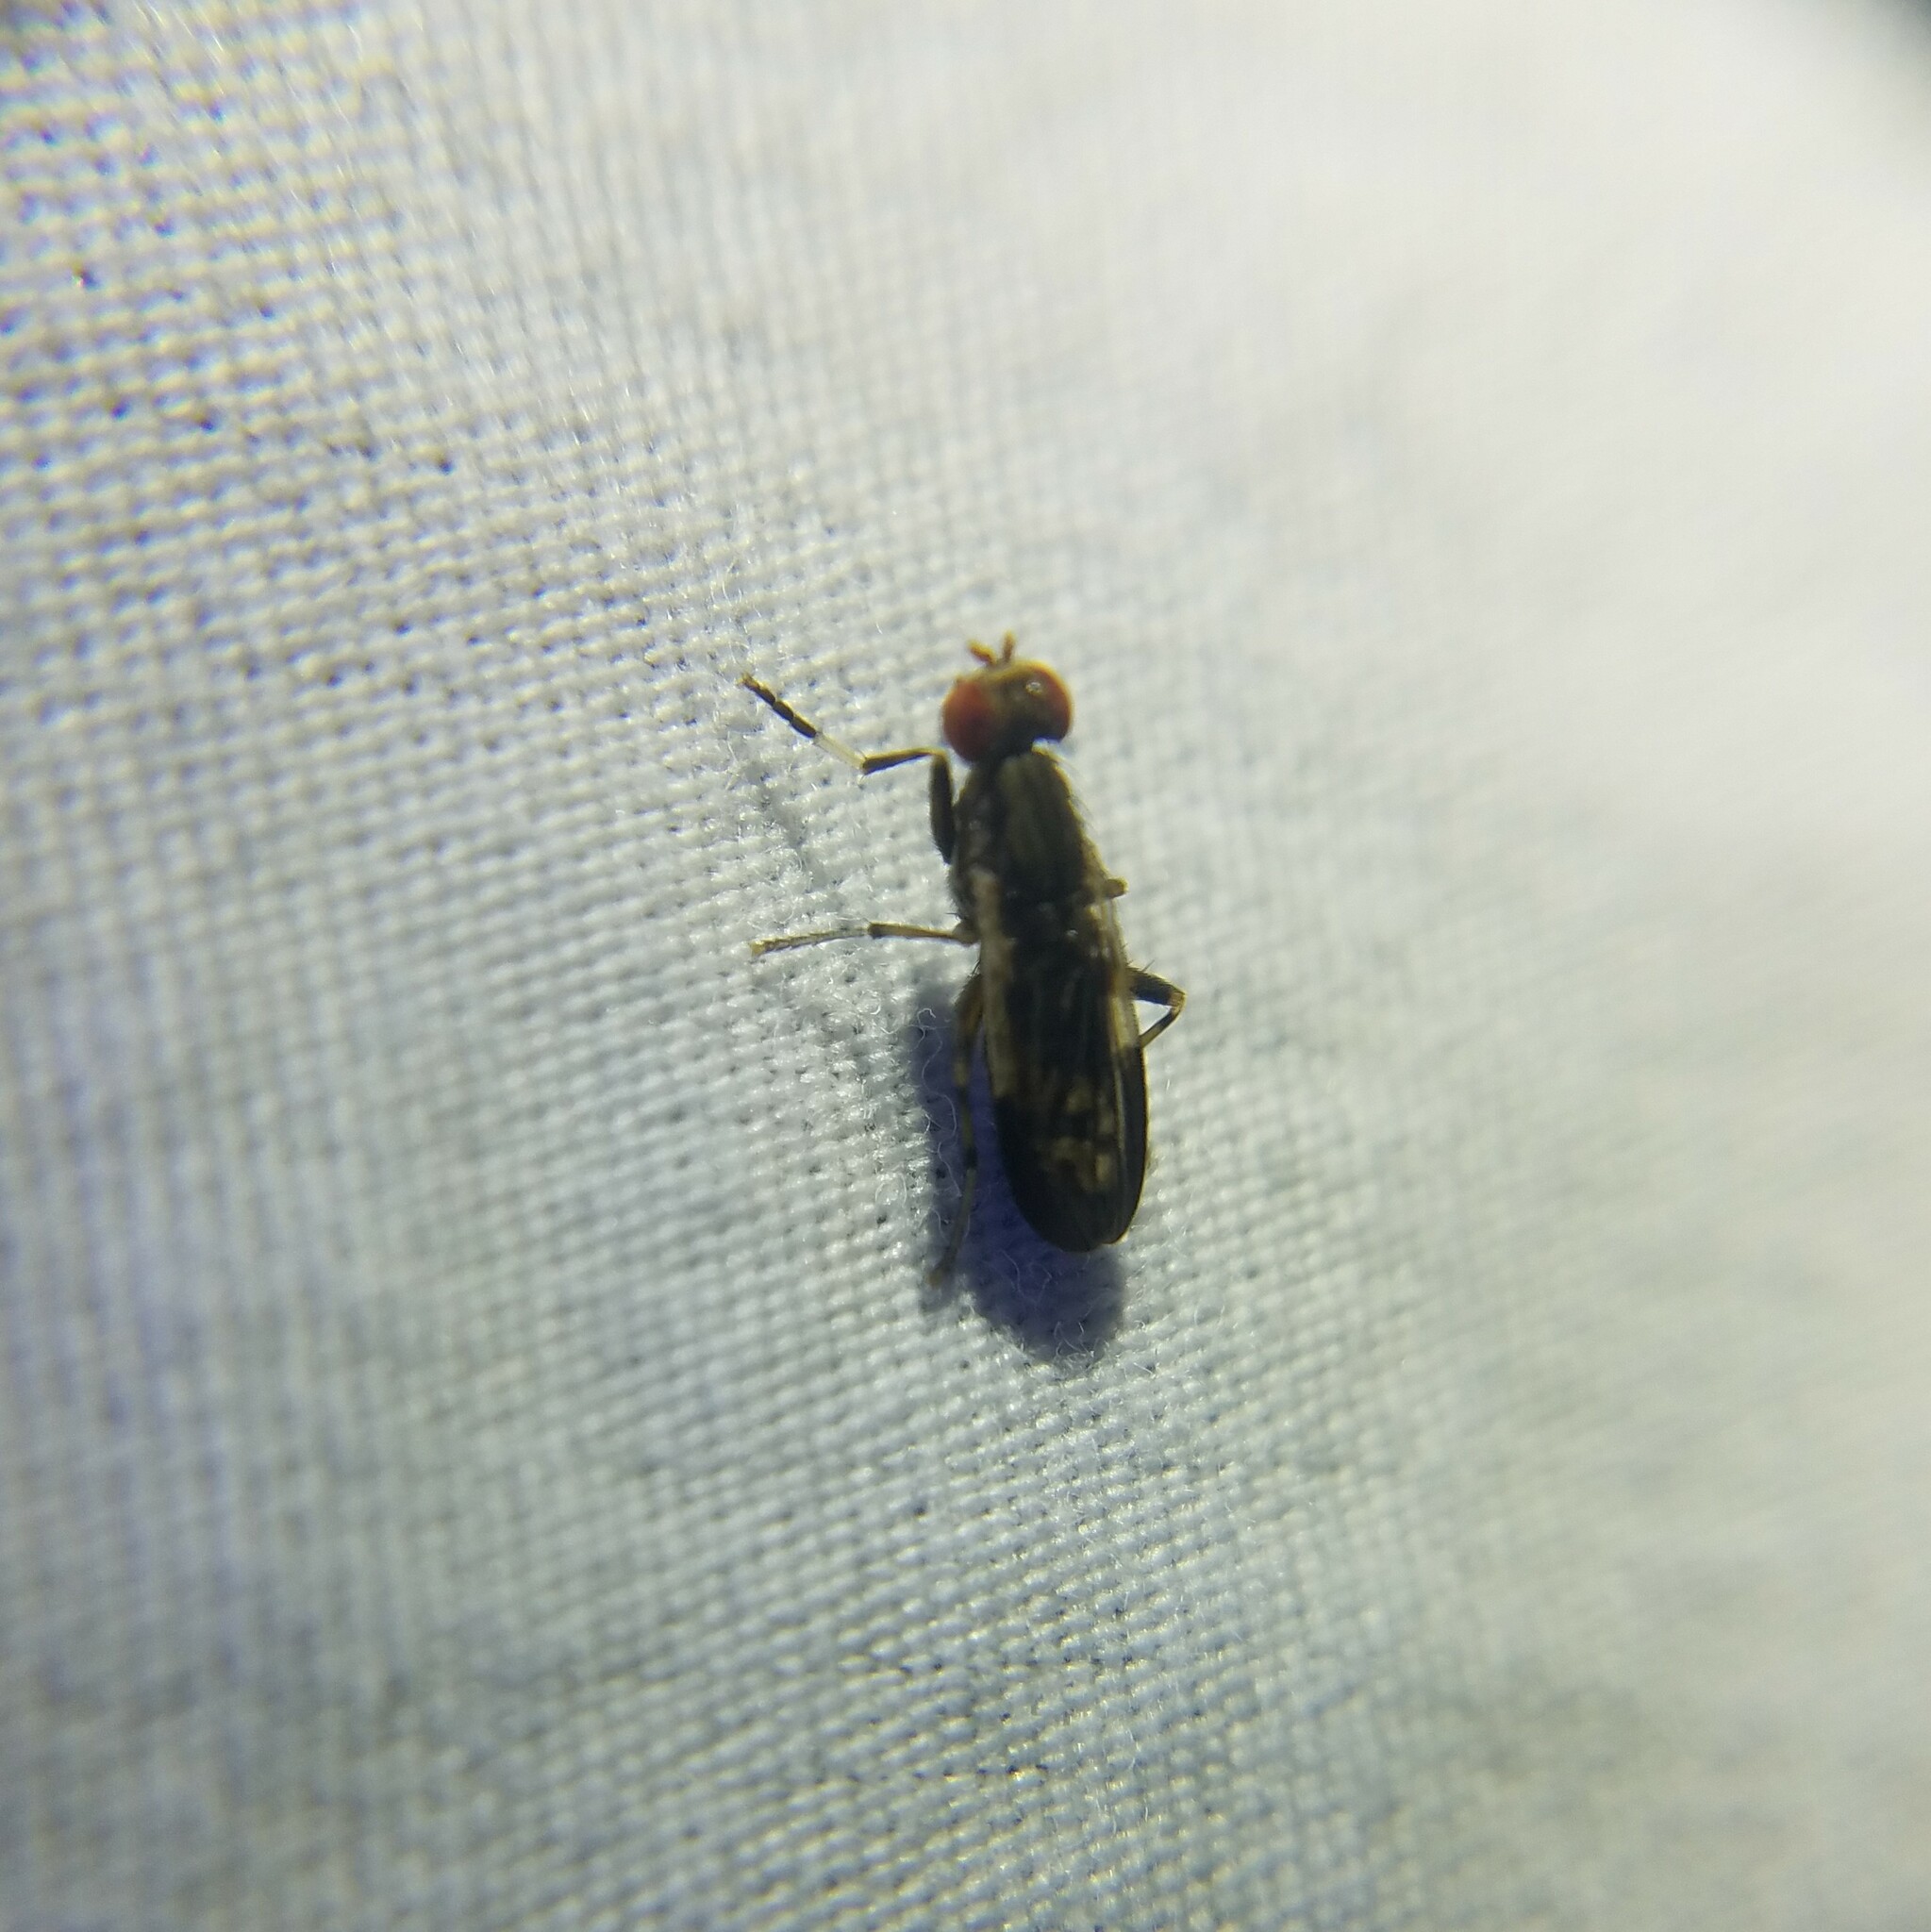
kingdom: Animalia
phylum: Arthropoda
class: Insecta
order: Diptera
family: Sciomyzidae
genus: Pherbellia
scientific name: Pherbellia albovaria
